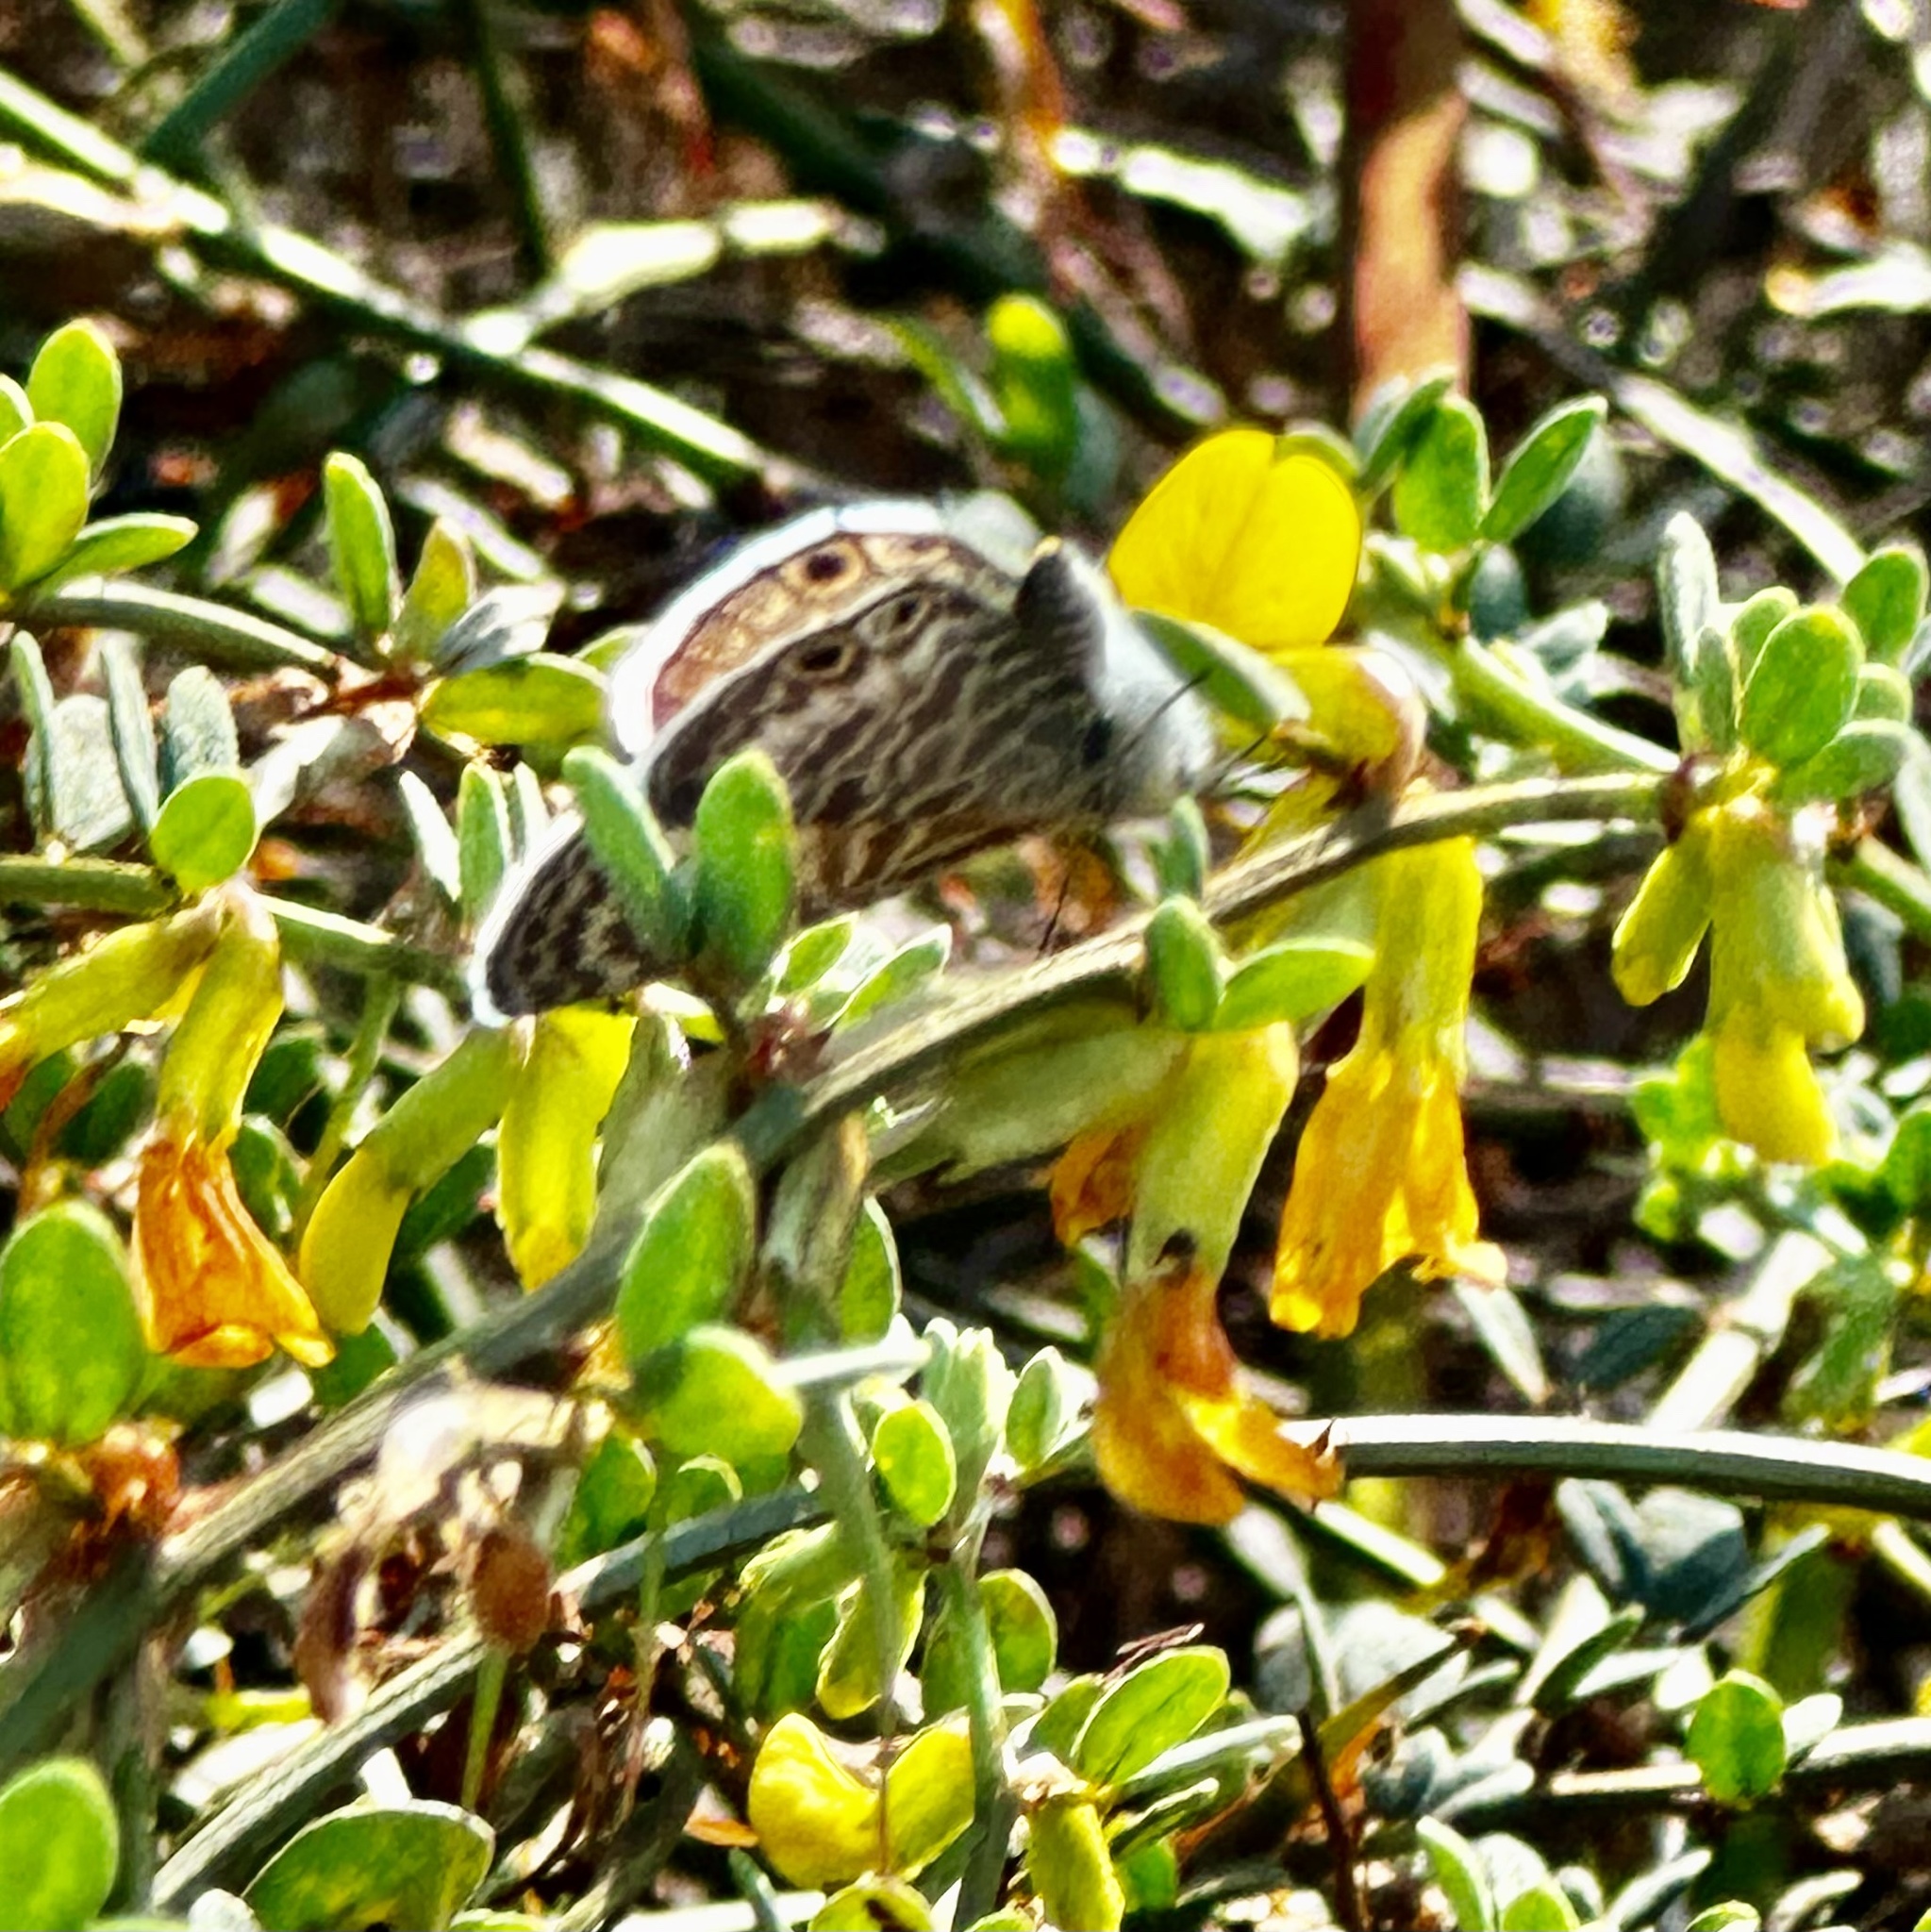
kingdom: Animalia
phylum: Arthropoda
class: Insecta
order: Lepidoptera
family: Lycaenidae
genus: Leptotes
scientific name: Leptotes marina
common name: Marine blue
